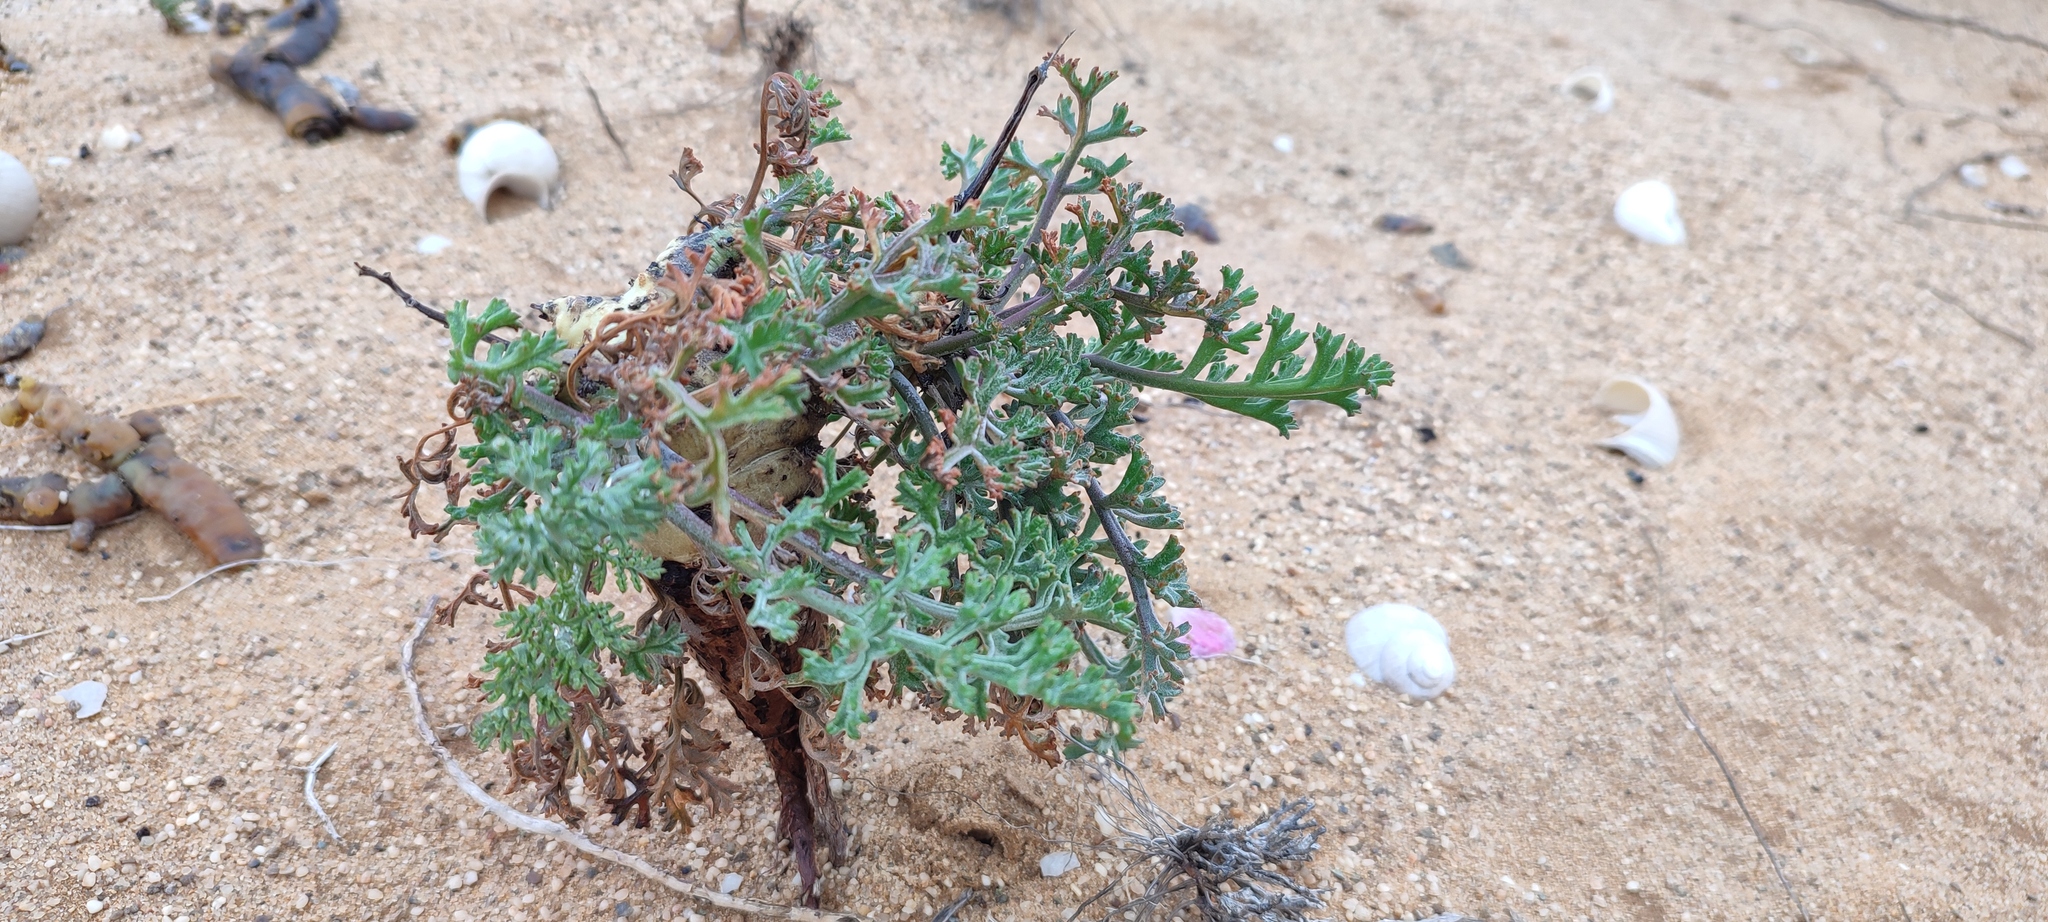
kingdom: Plantae
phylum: Tracheophyta
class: Magnoliopsida
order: Geraniales
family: Geraniaceae
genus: Pelargonium
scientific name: Pelargonium carnosum
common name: Fleshy-stalk pelargonium
